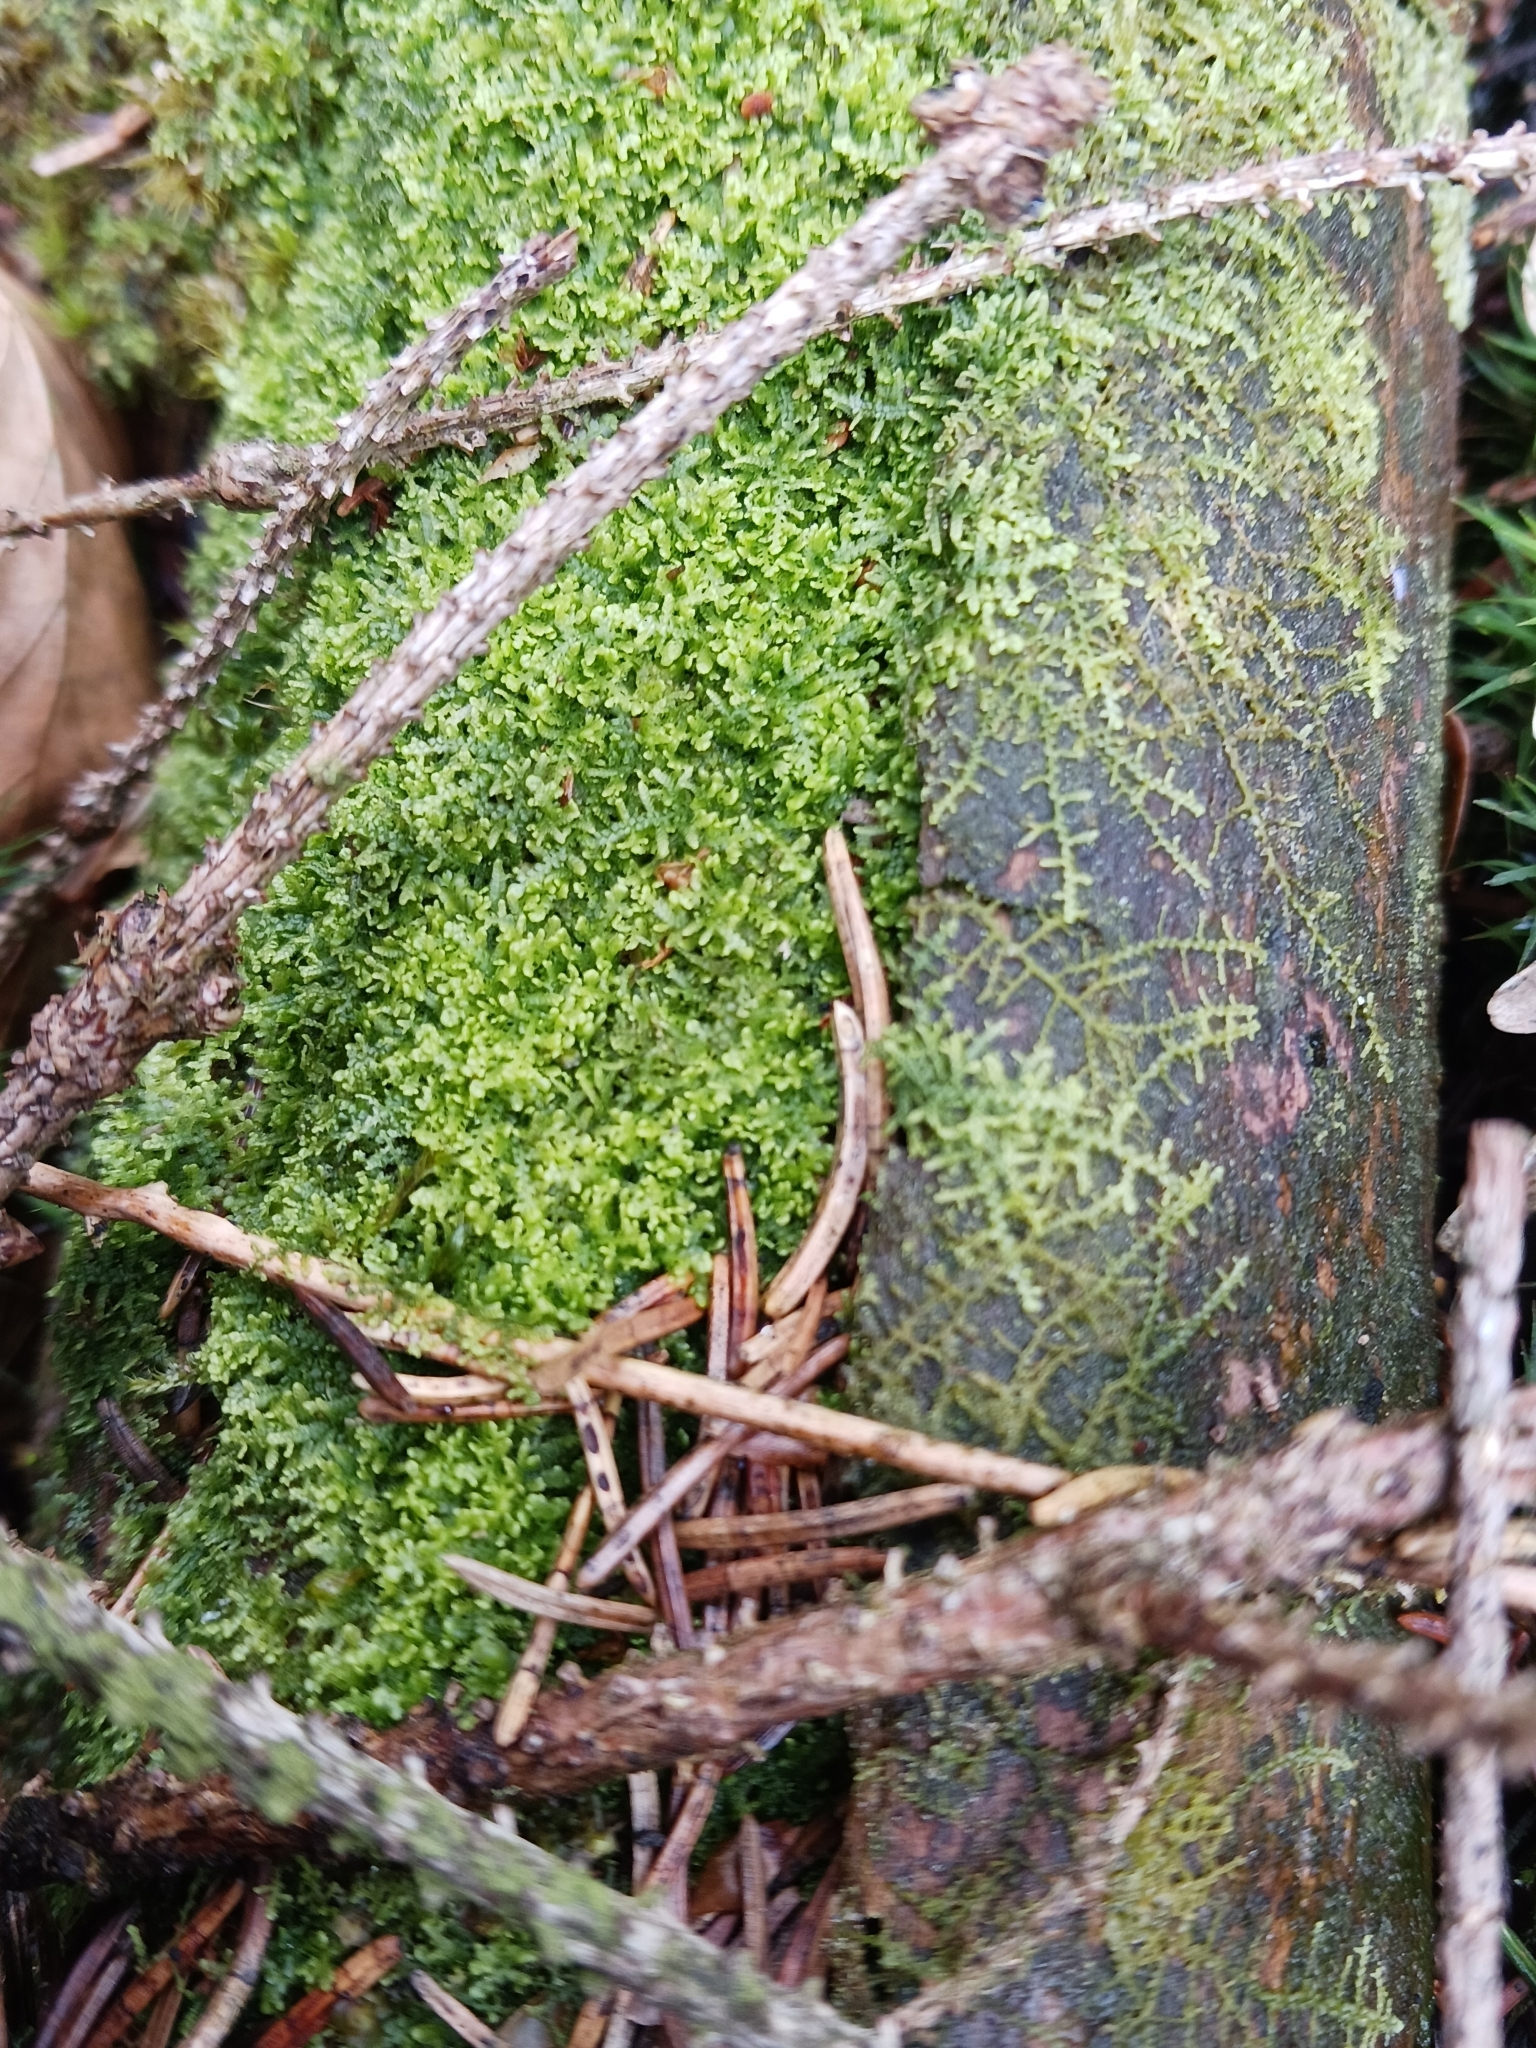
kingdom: Plantae
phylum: Marchantiophyta
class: Jungermanniopsida
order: Jungermanniales
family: Lepidoziaceae
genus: Lepidozia
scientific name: Lepidozia reptans
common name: Creeping fingerwort
